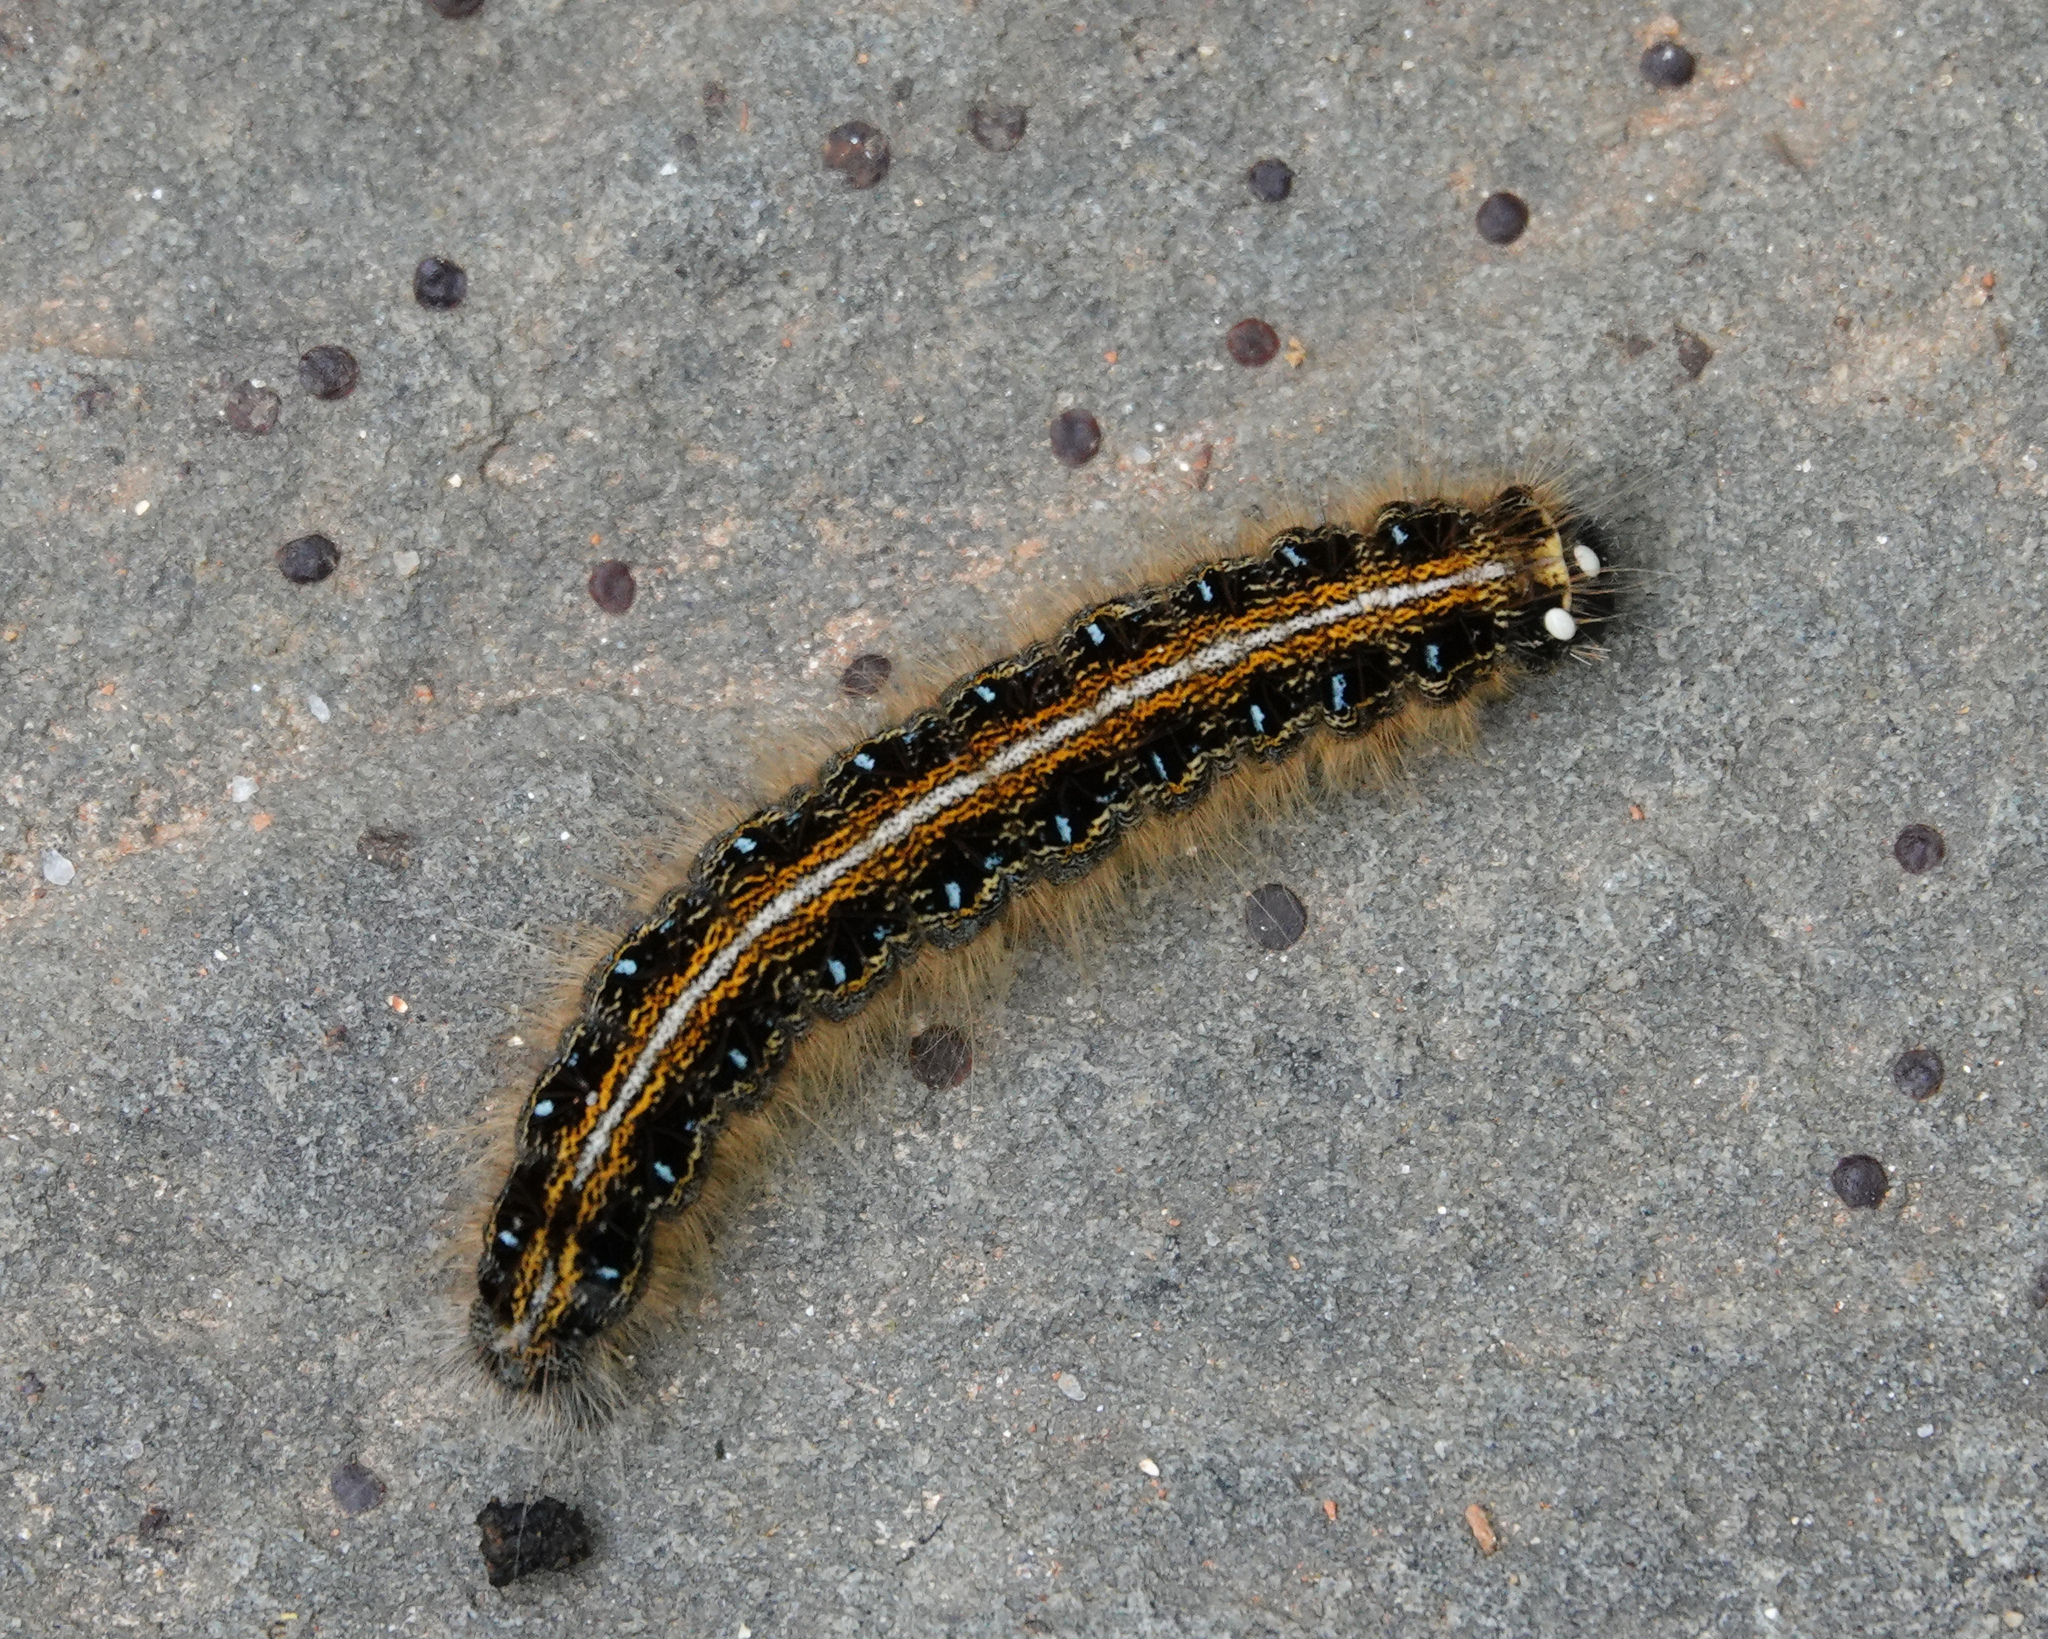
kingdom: Animalia
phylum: Arthropoda
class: Insecta
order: Lepidoptera
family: Lasiocampidae
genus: Malacosoma
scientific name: Malacosoma americana
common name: Eastern tent caterpillar moth
